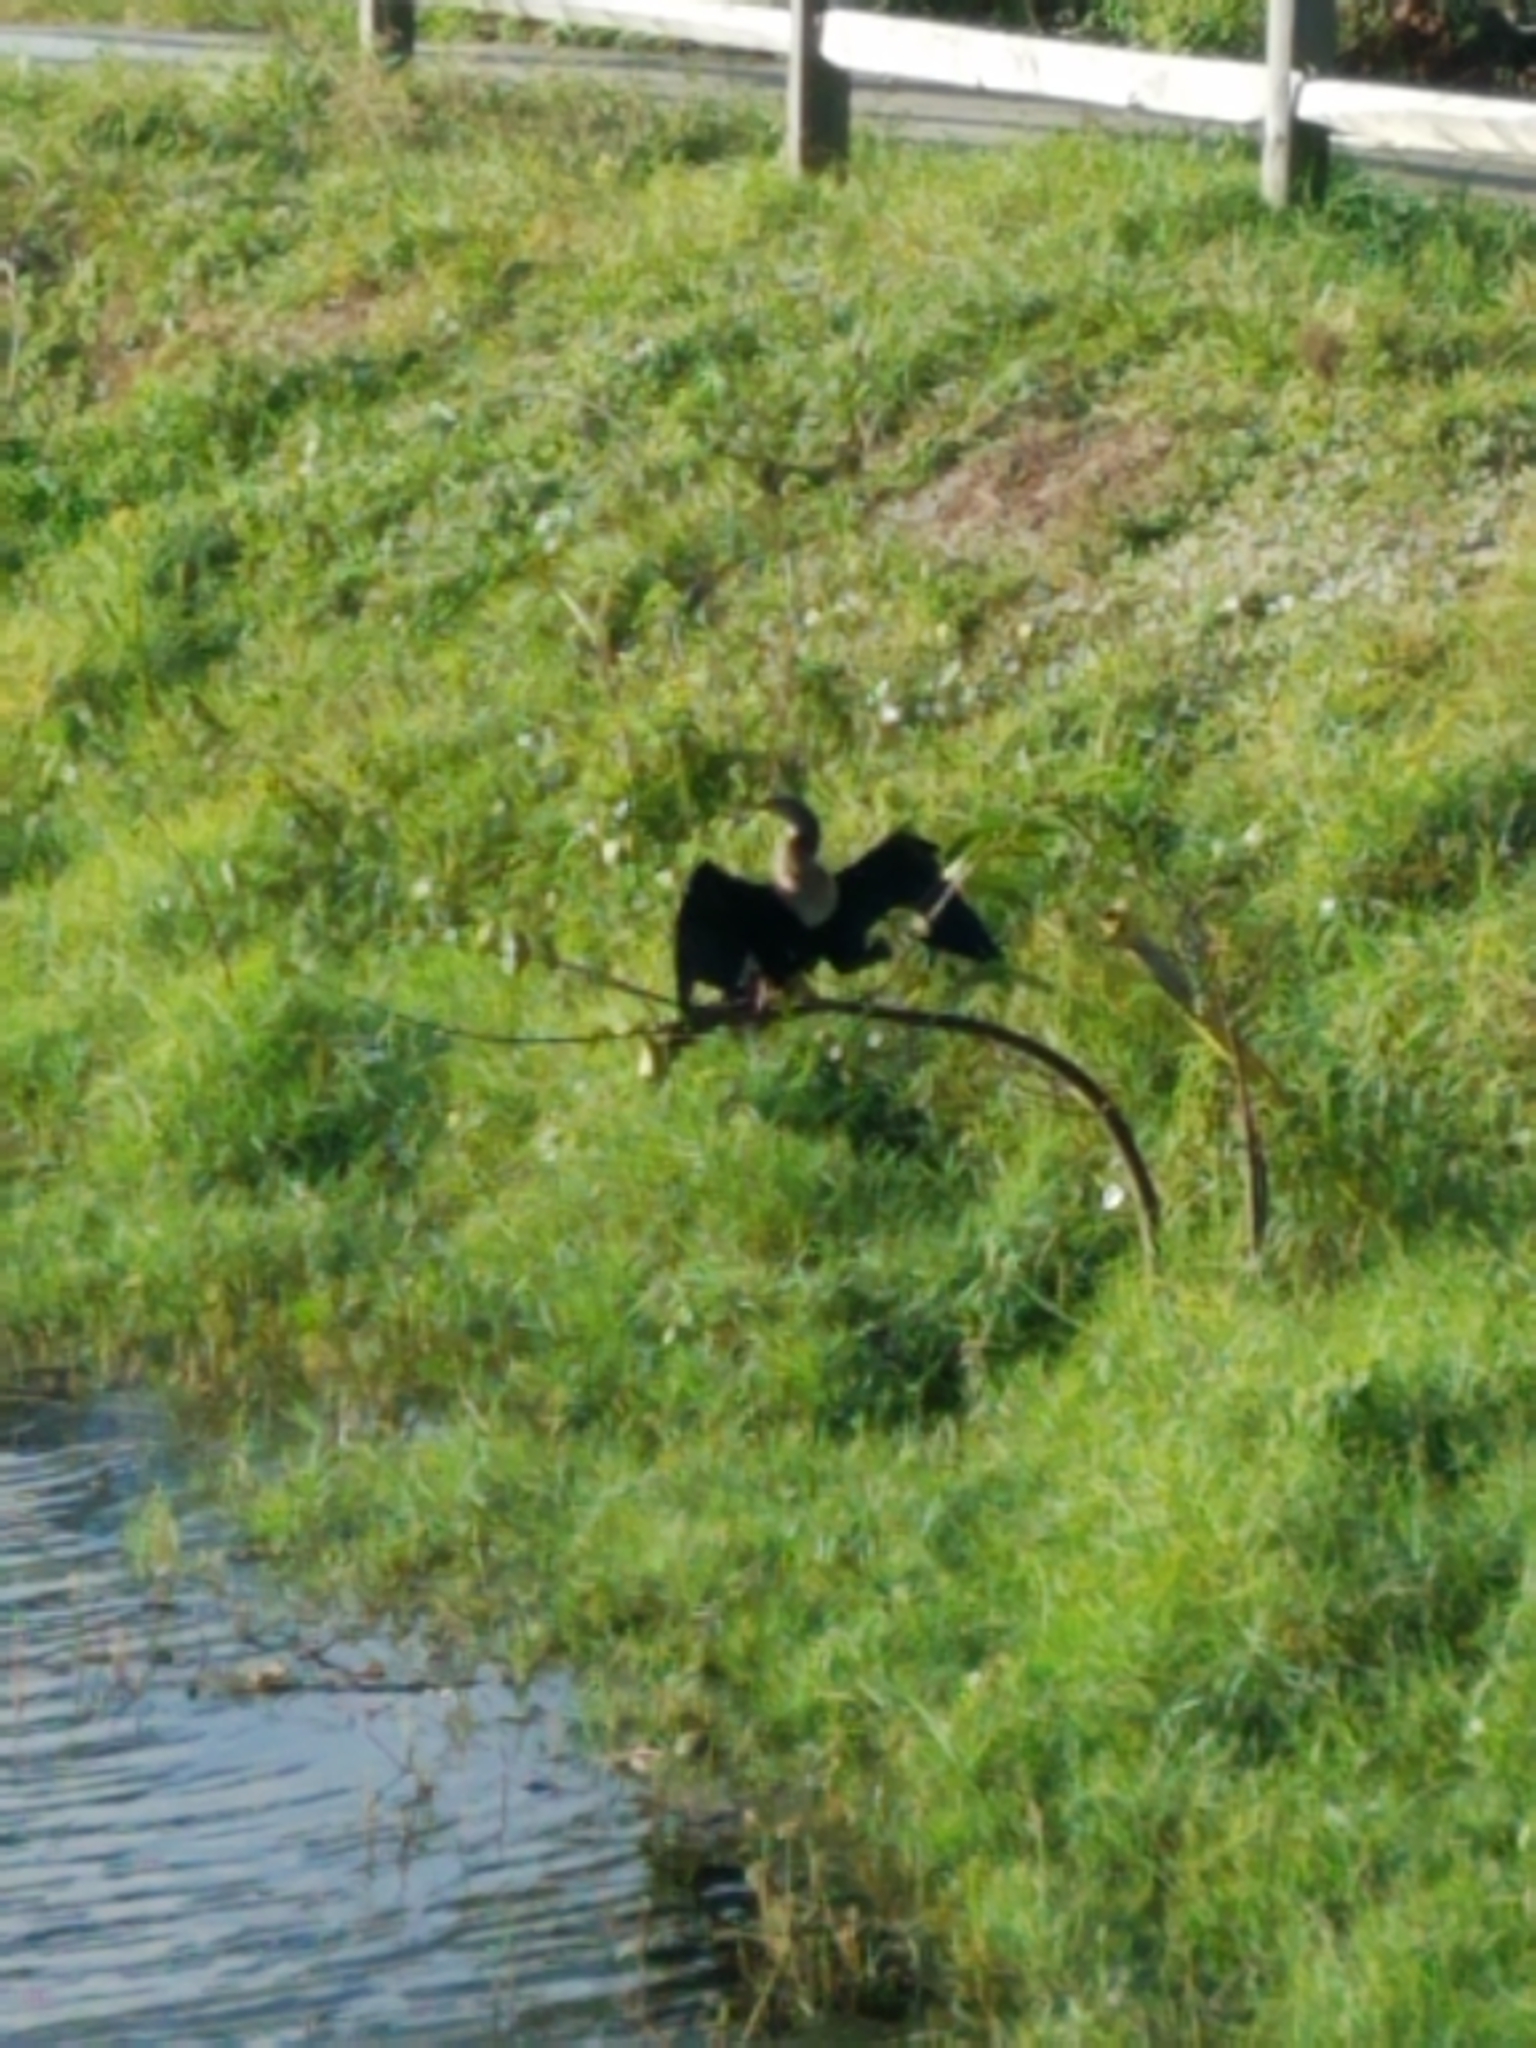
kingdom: Animalia
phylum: Chordata
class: Aves
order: Suliformes
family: Anhingidae
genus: Anhinga
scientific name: Anhinga anhinga
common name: Anhinga
